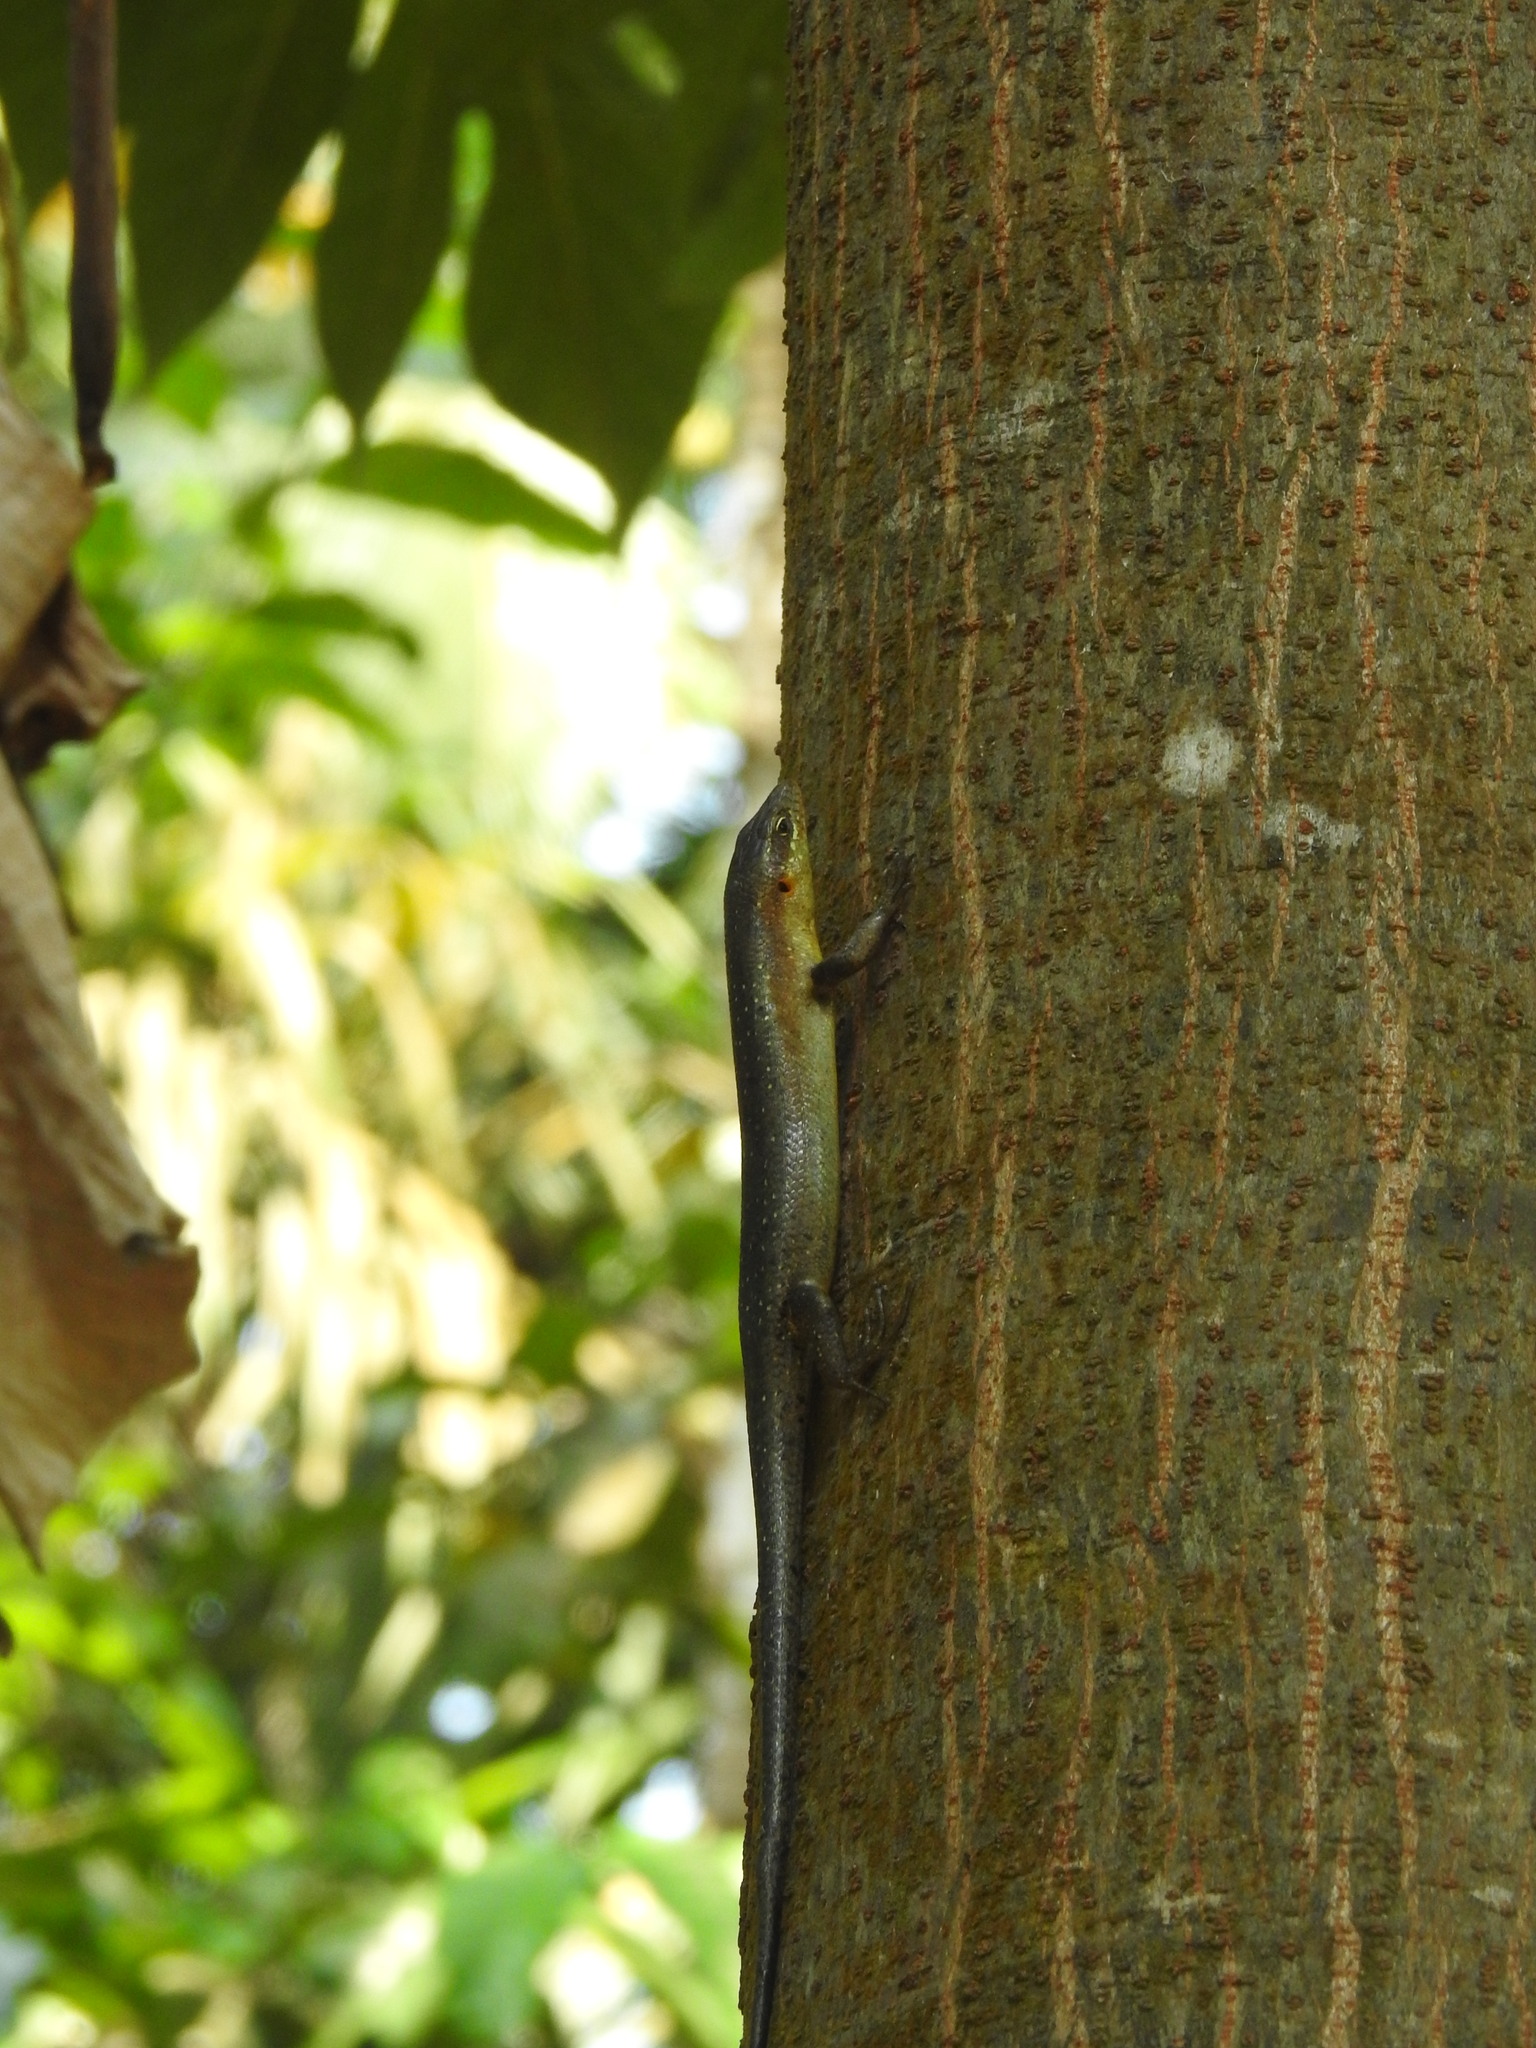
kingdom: Animalia
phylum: Chordata
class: Squamata
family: Scincidae
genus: Trachylepis
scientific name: Trachylepis thomensis
